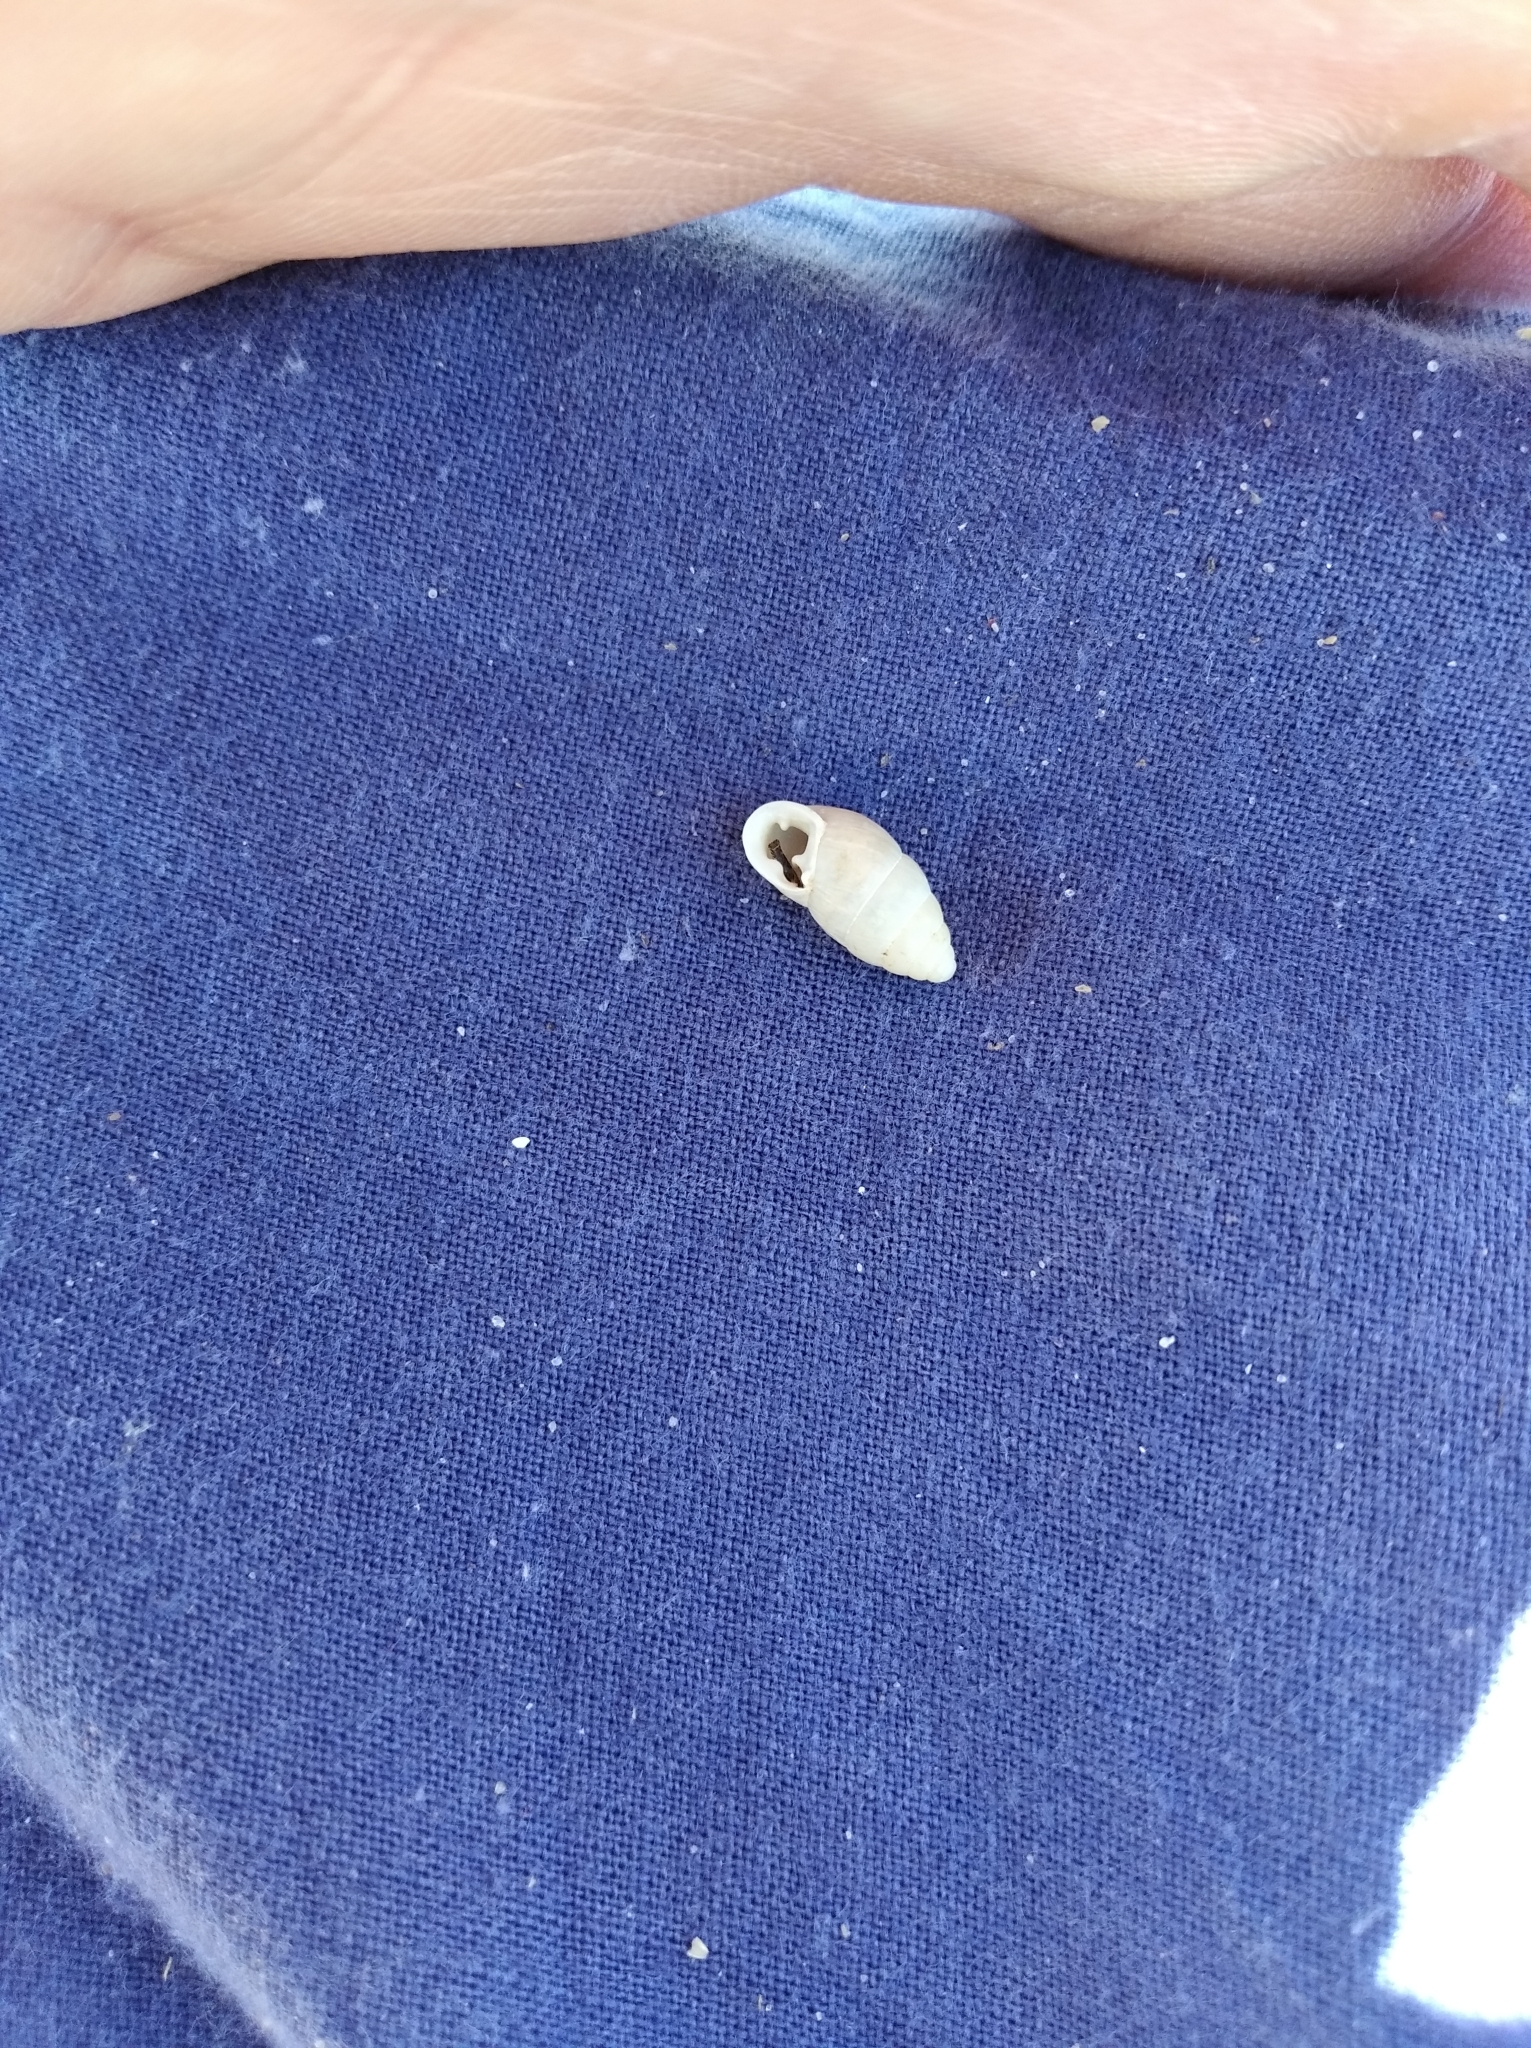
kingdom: Animalia
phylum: Mollusca
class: Gastropoda
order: Stylommatophora
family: Enidae
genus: Chondrula
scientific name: Chondrula tridens
